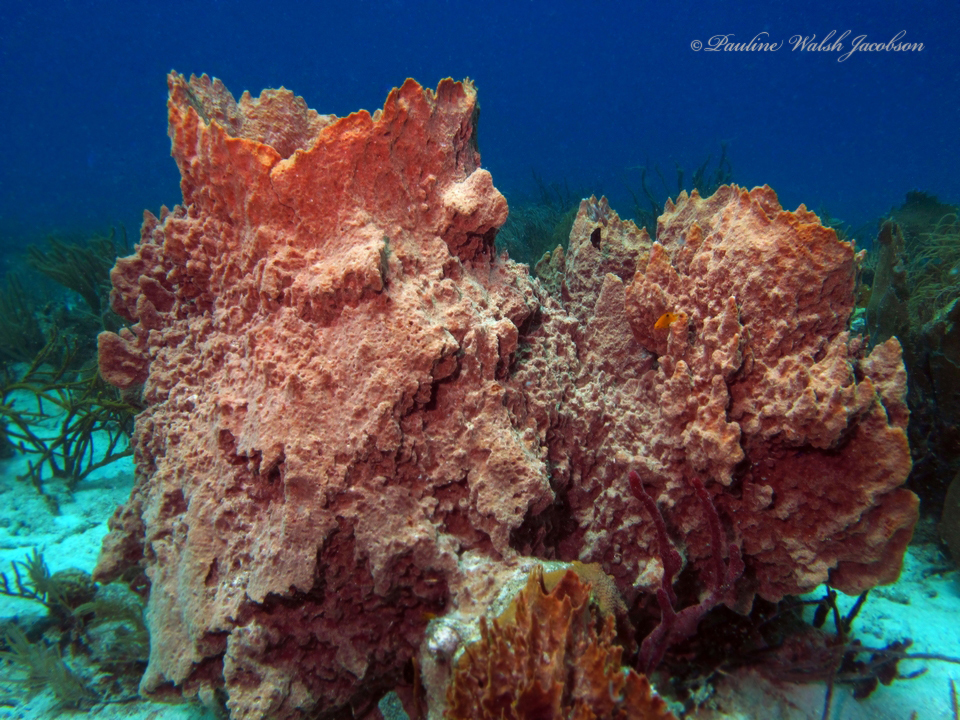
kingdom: Animalia
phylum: Porifera
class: Demospongiae
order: Haplosclerida
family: Petrosiidae
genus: Xestospongia
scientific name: Xestospongia muta
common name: Giant barrel sponge
